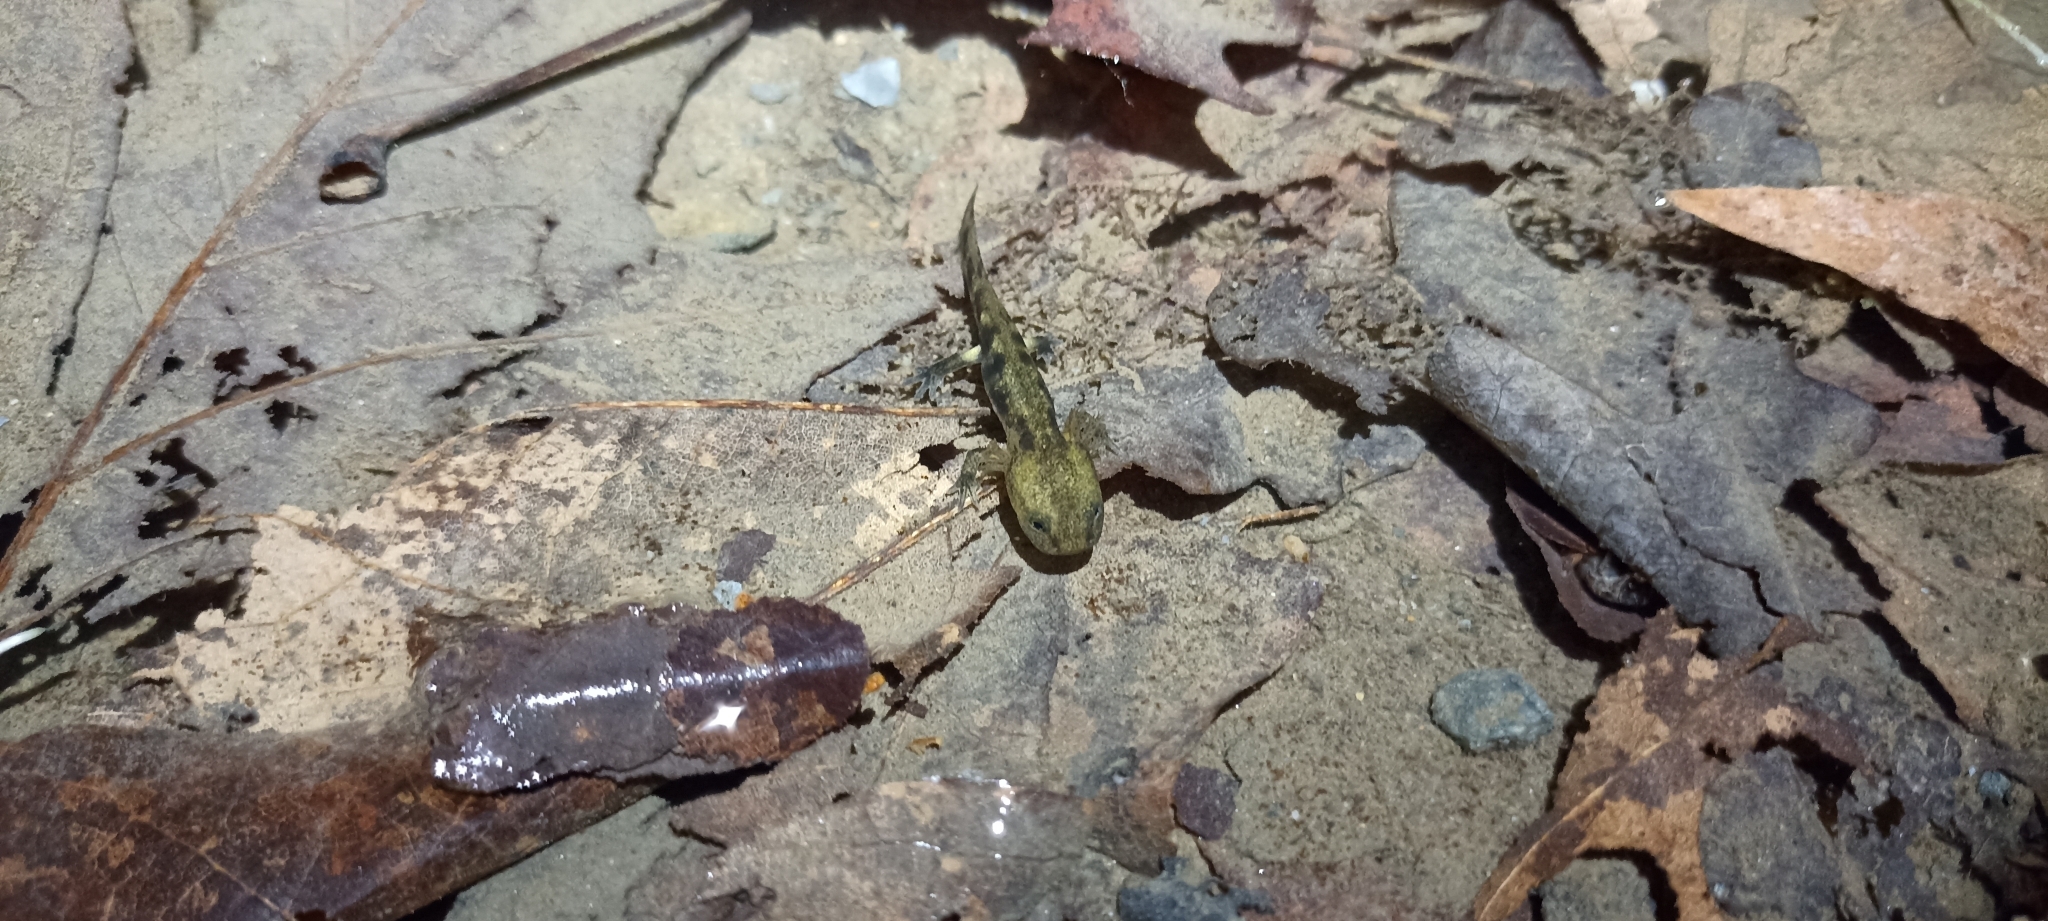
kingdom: Animalia
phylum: Chordata
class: Amphibia
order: Caudata
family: Salamandridae
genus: Salamandra
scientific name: Salamandra salamandra
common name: Fire salamander
